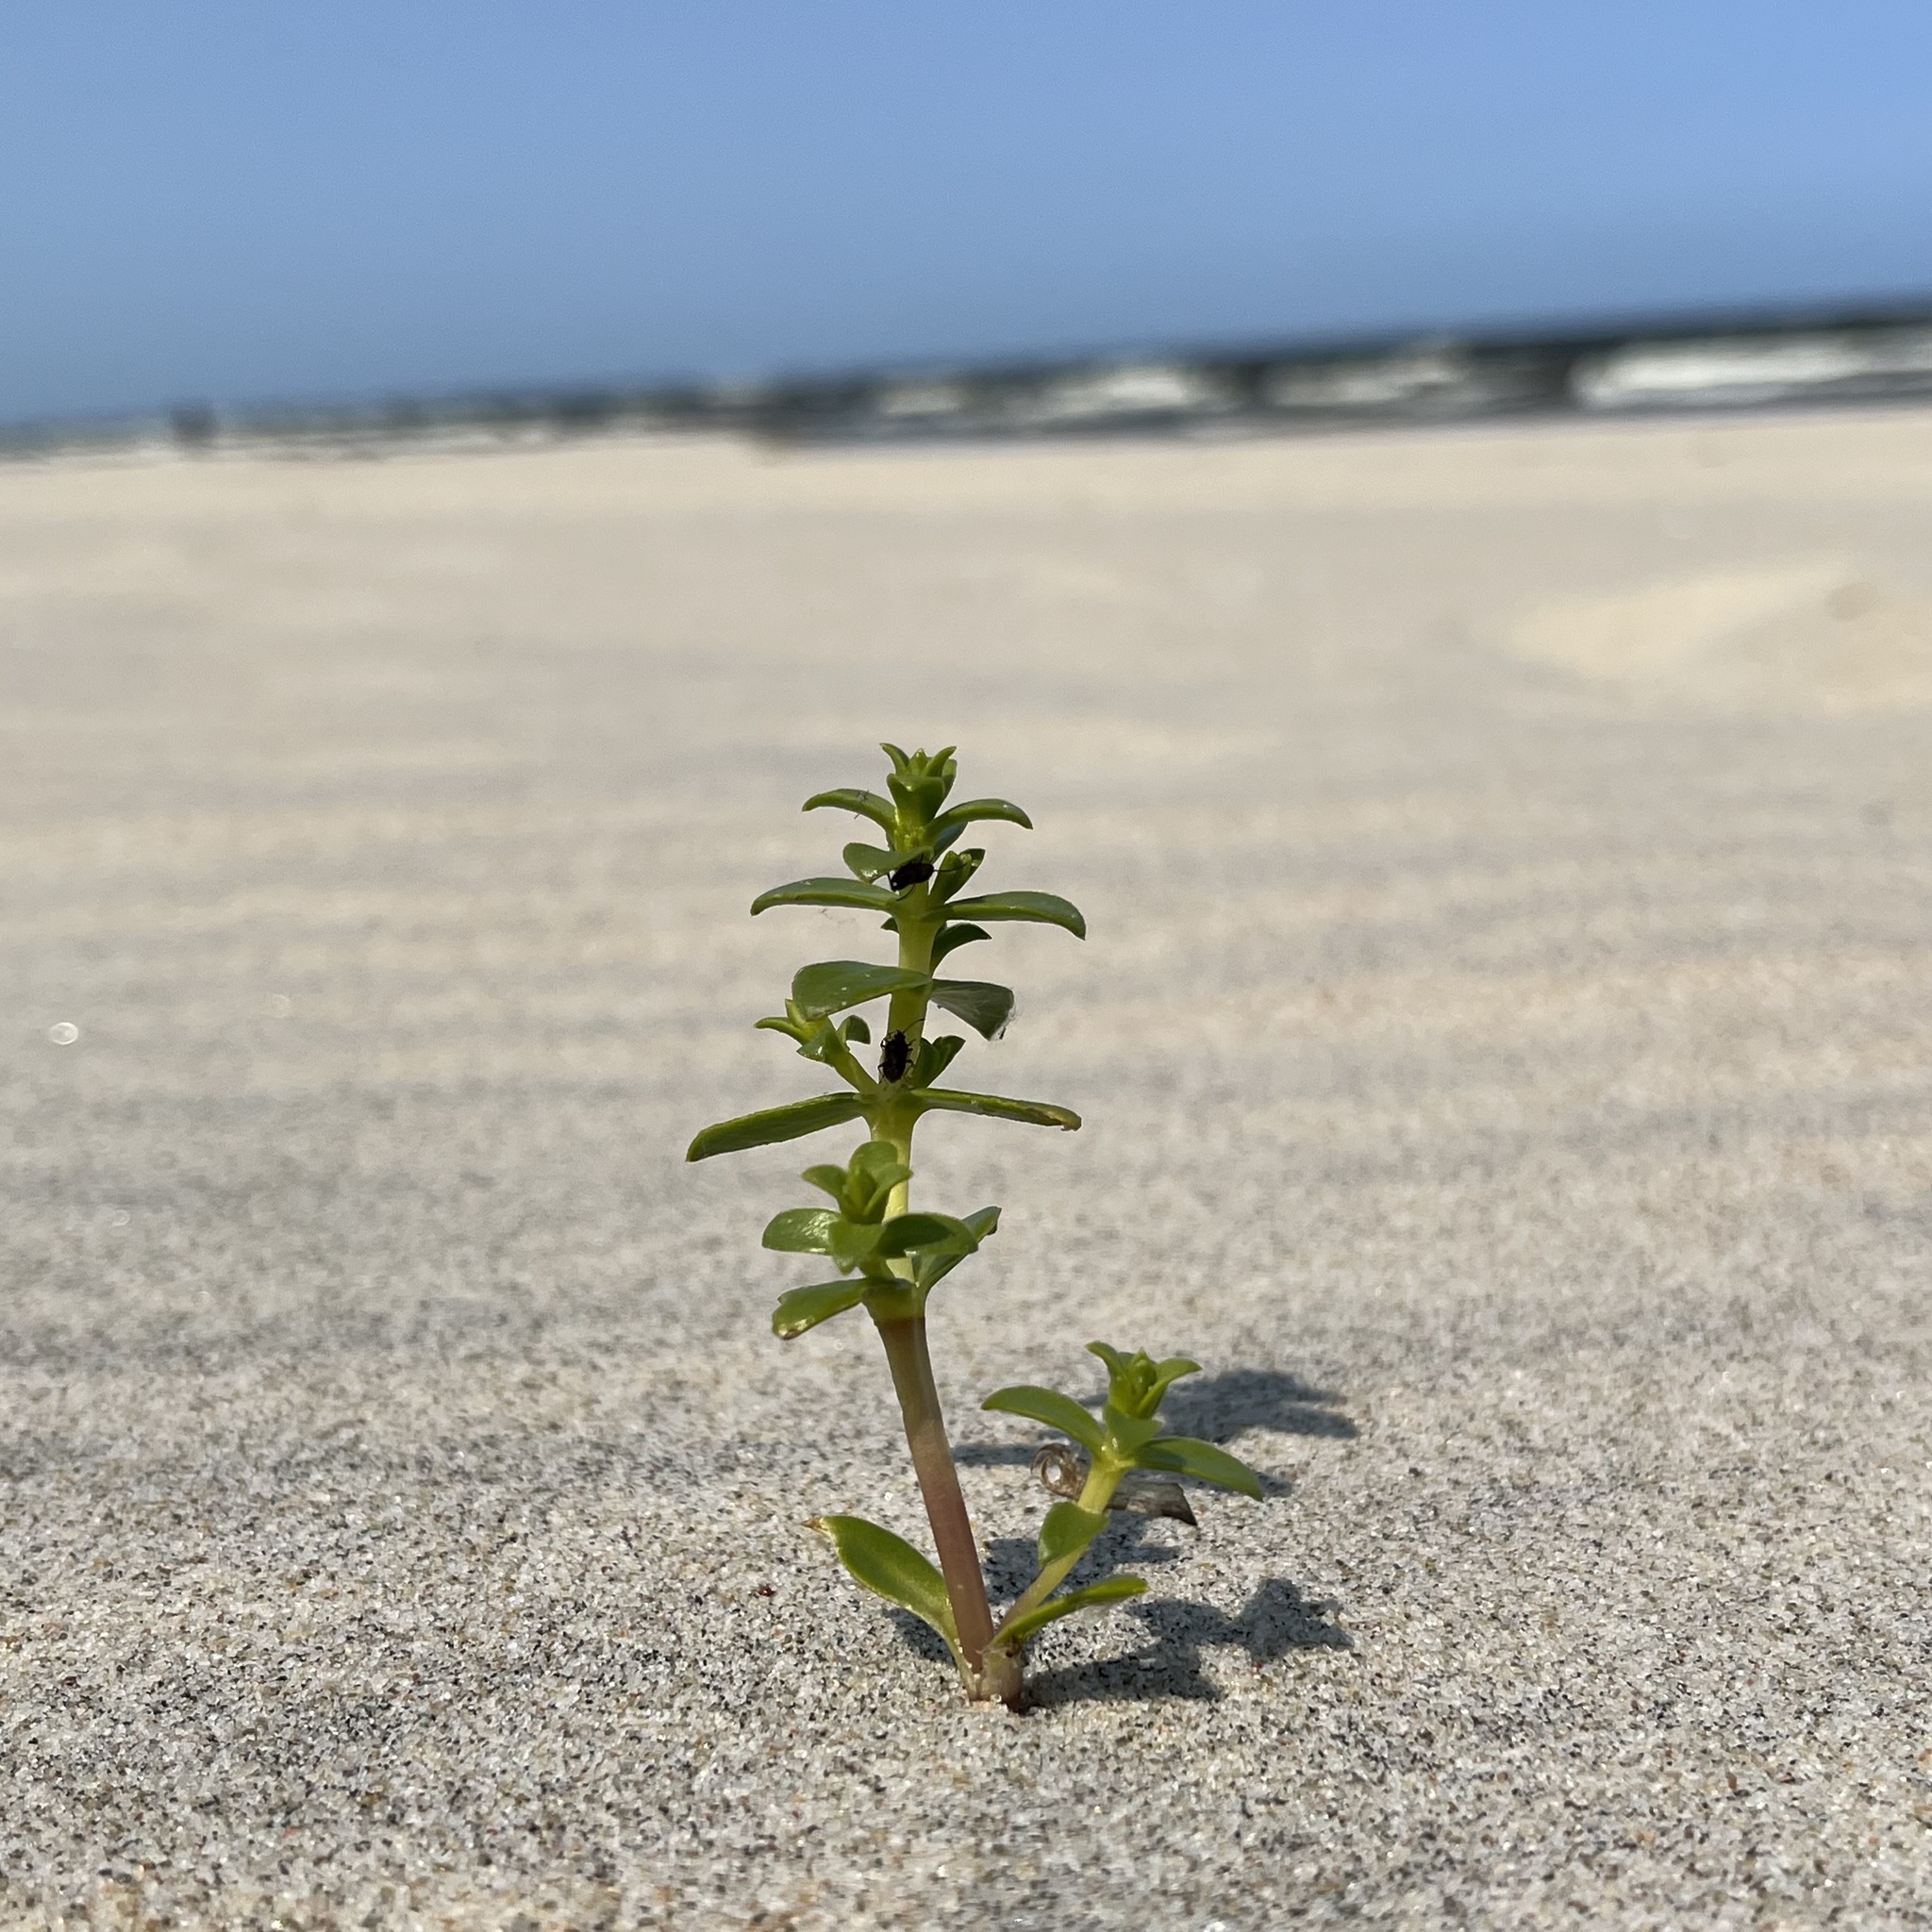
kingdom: Plantae
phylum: Tracheophyta
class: Magnoliopsida
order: Caryophyllales
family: Caryophyllaceae
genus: Honckenya
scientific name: Honckenya peploides
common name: Sea sandwort
